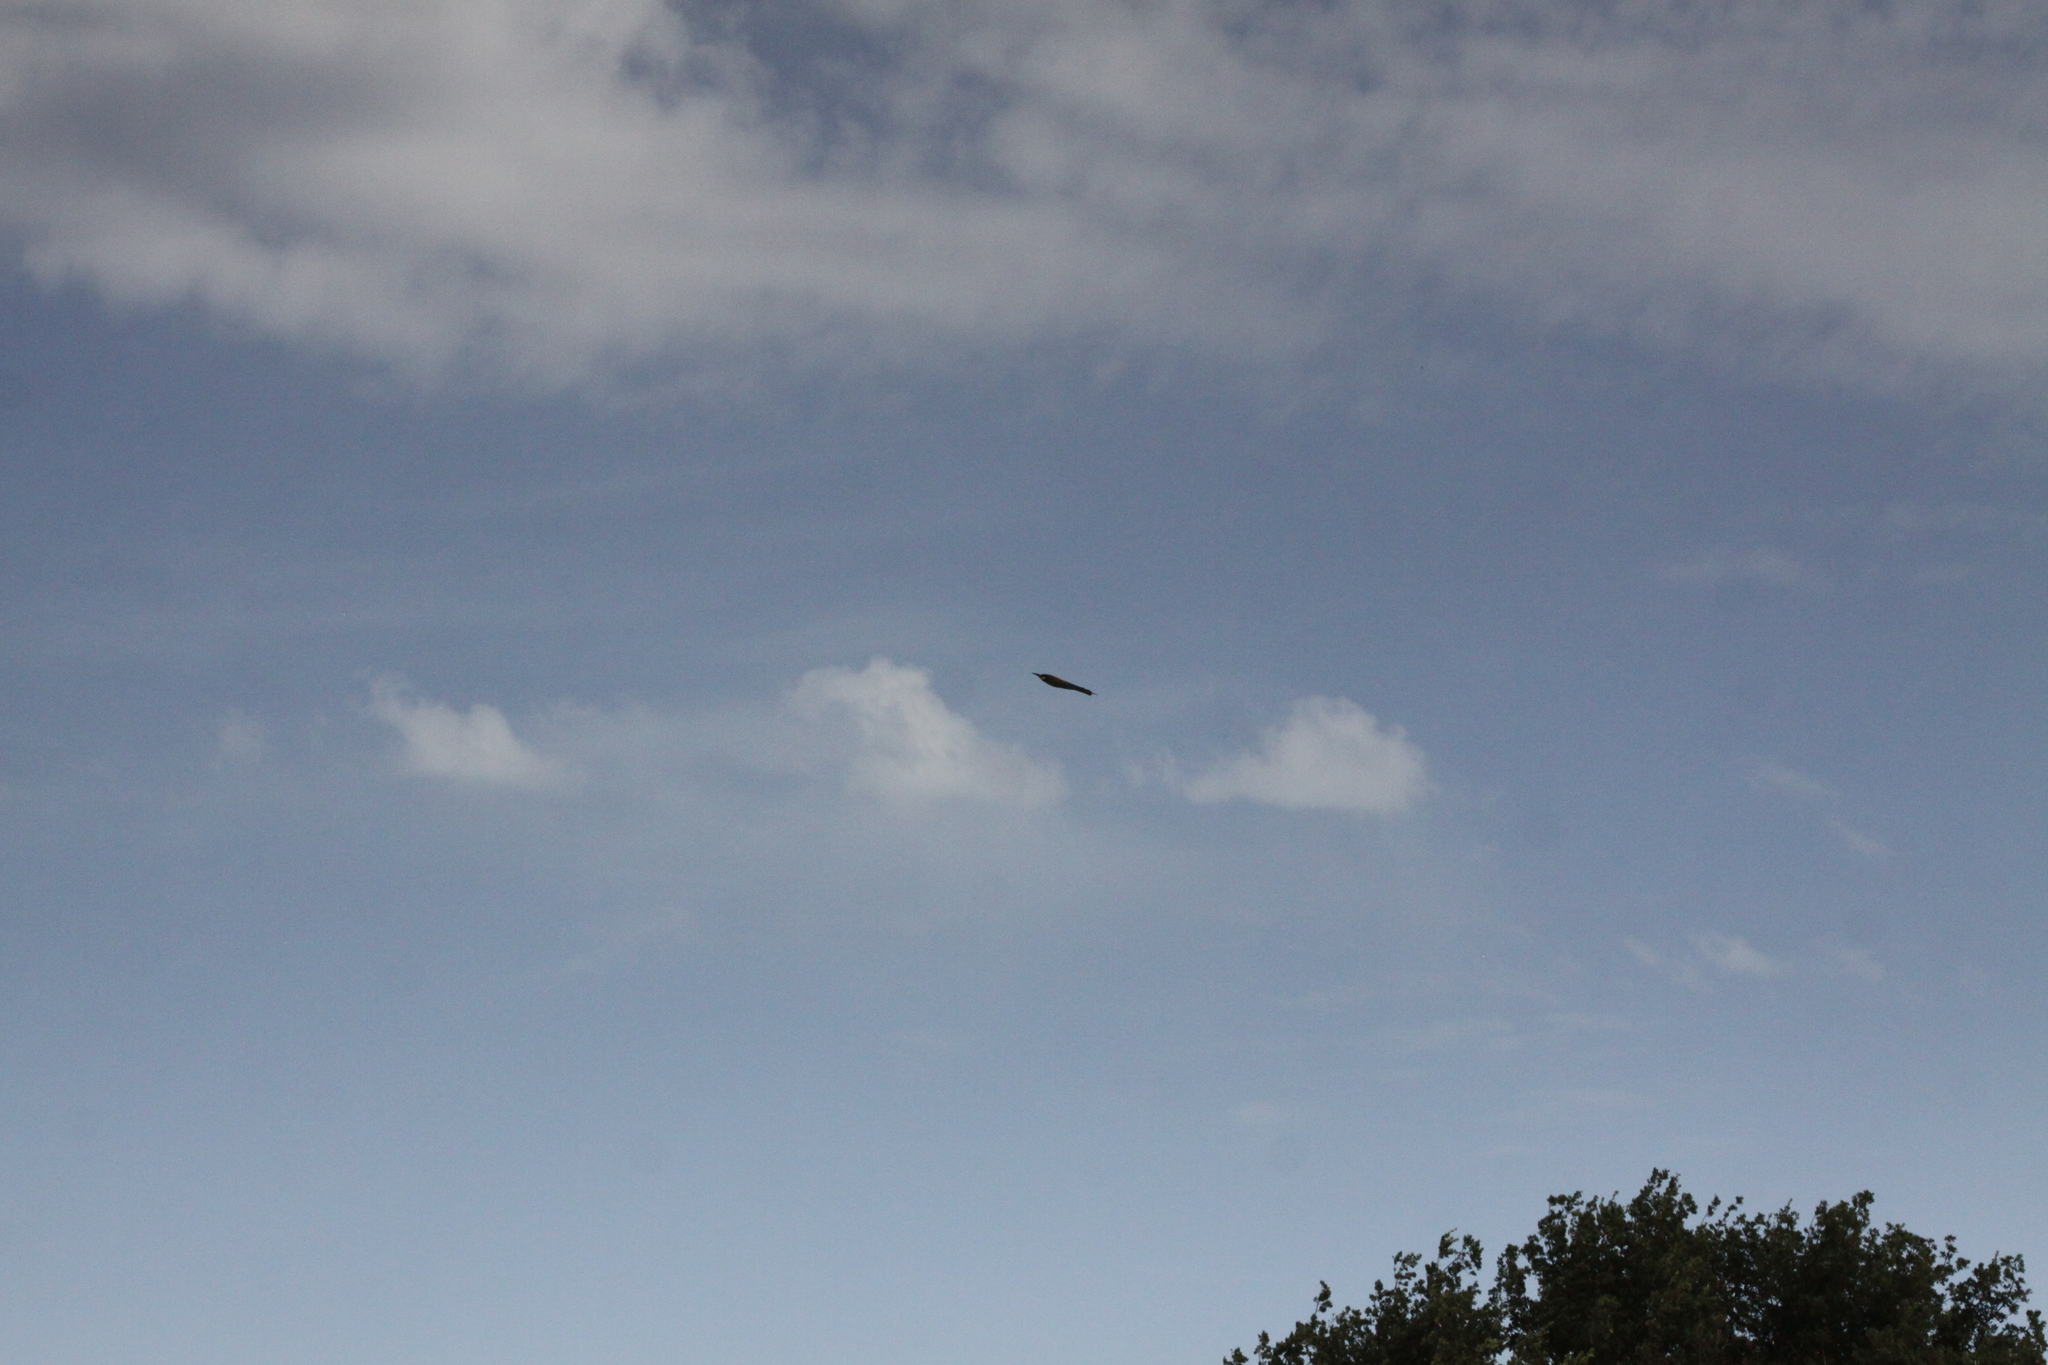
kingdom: Animalia
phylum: Chordata
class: Aves
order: Coraciiformes
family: Meropidae
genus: Merops
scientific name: Merops apiaster
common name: European bee-eater
